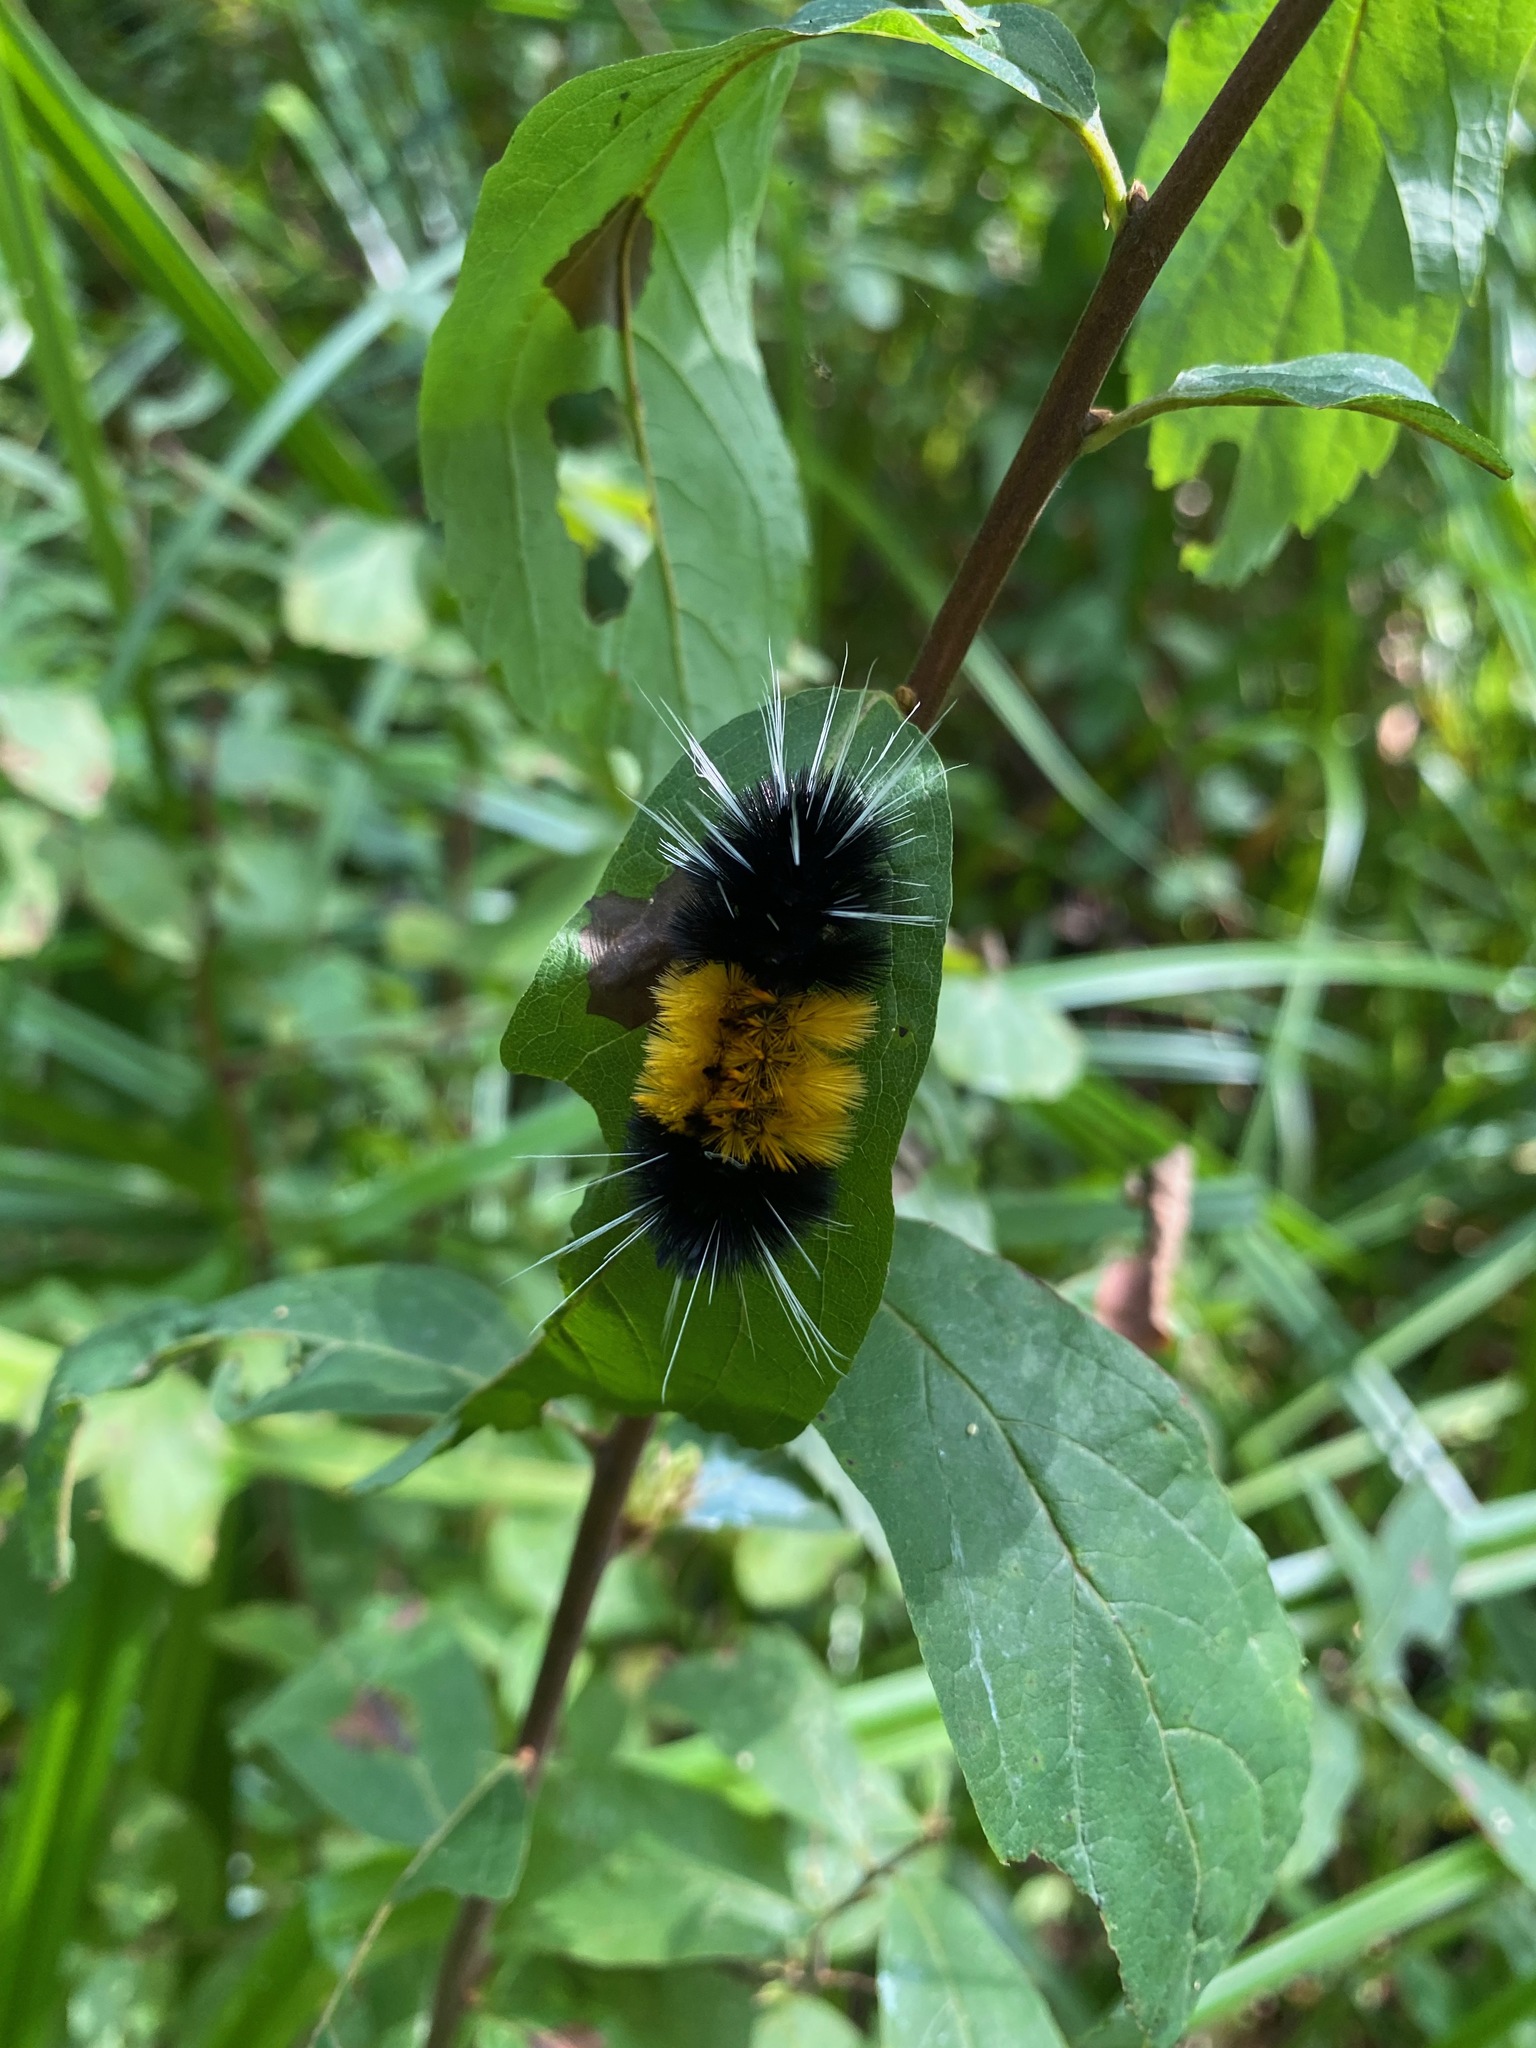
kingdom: Animalia
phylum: Arthropoda
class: Insecta
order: Lepidoptera
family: Erebidae
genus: Lophocampa
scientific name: Lophocampa maculata
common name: Spotted tussock moth
